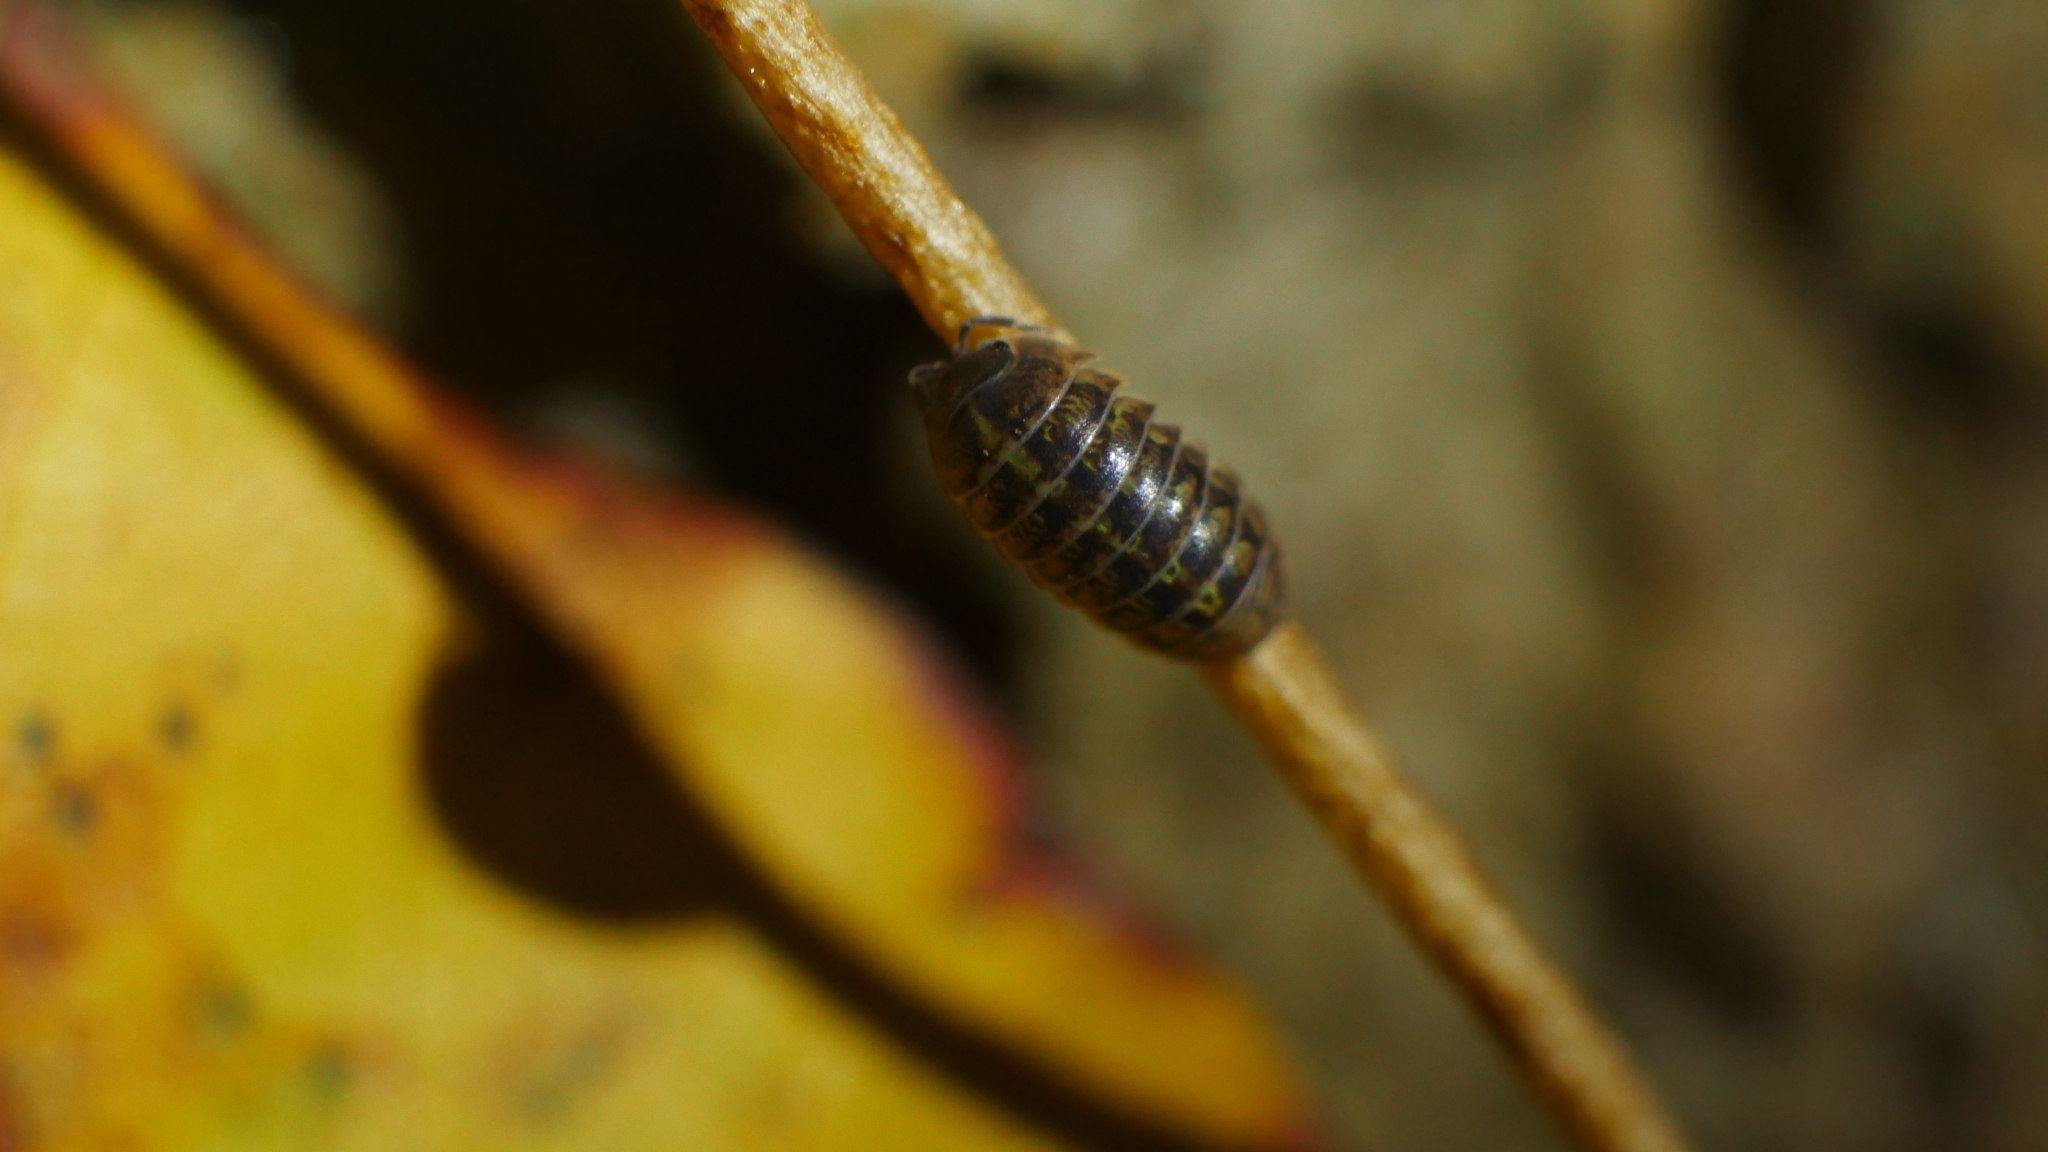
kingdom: Animalia
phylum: Arthropoda
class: Malacostraca
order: Isopoda
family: Armadillidiidae
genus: Armadillidium
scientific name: Armadillidium vulgare
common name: Common pill woodlouse
